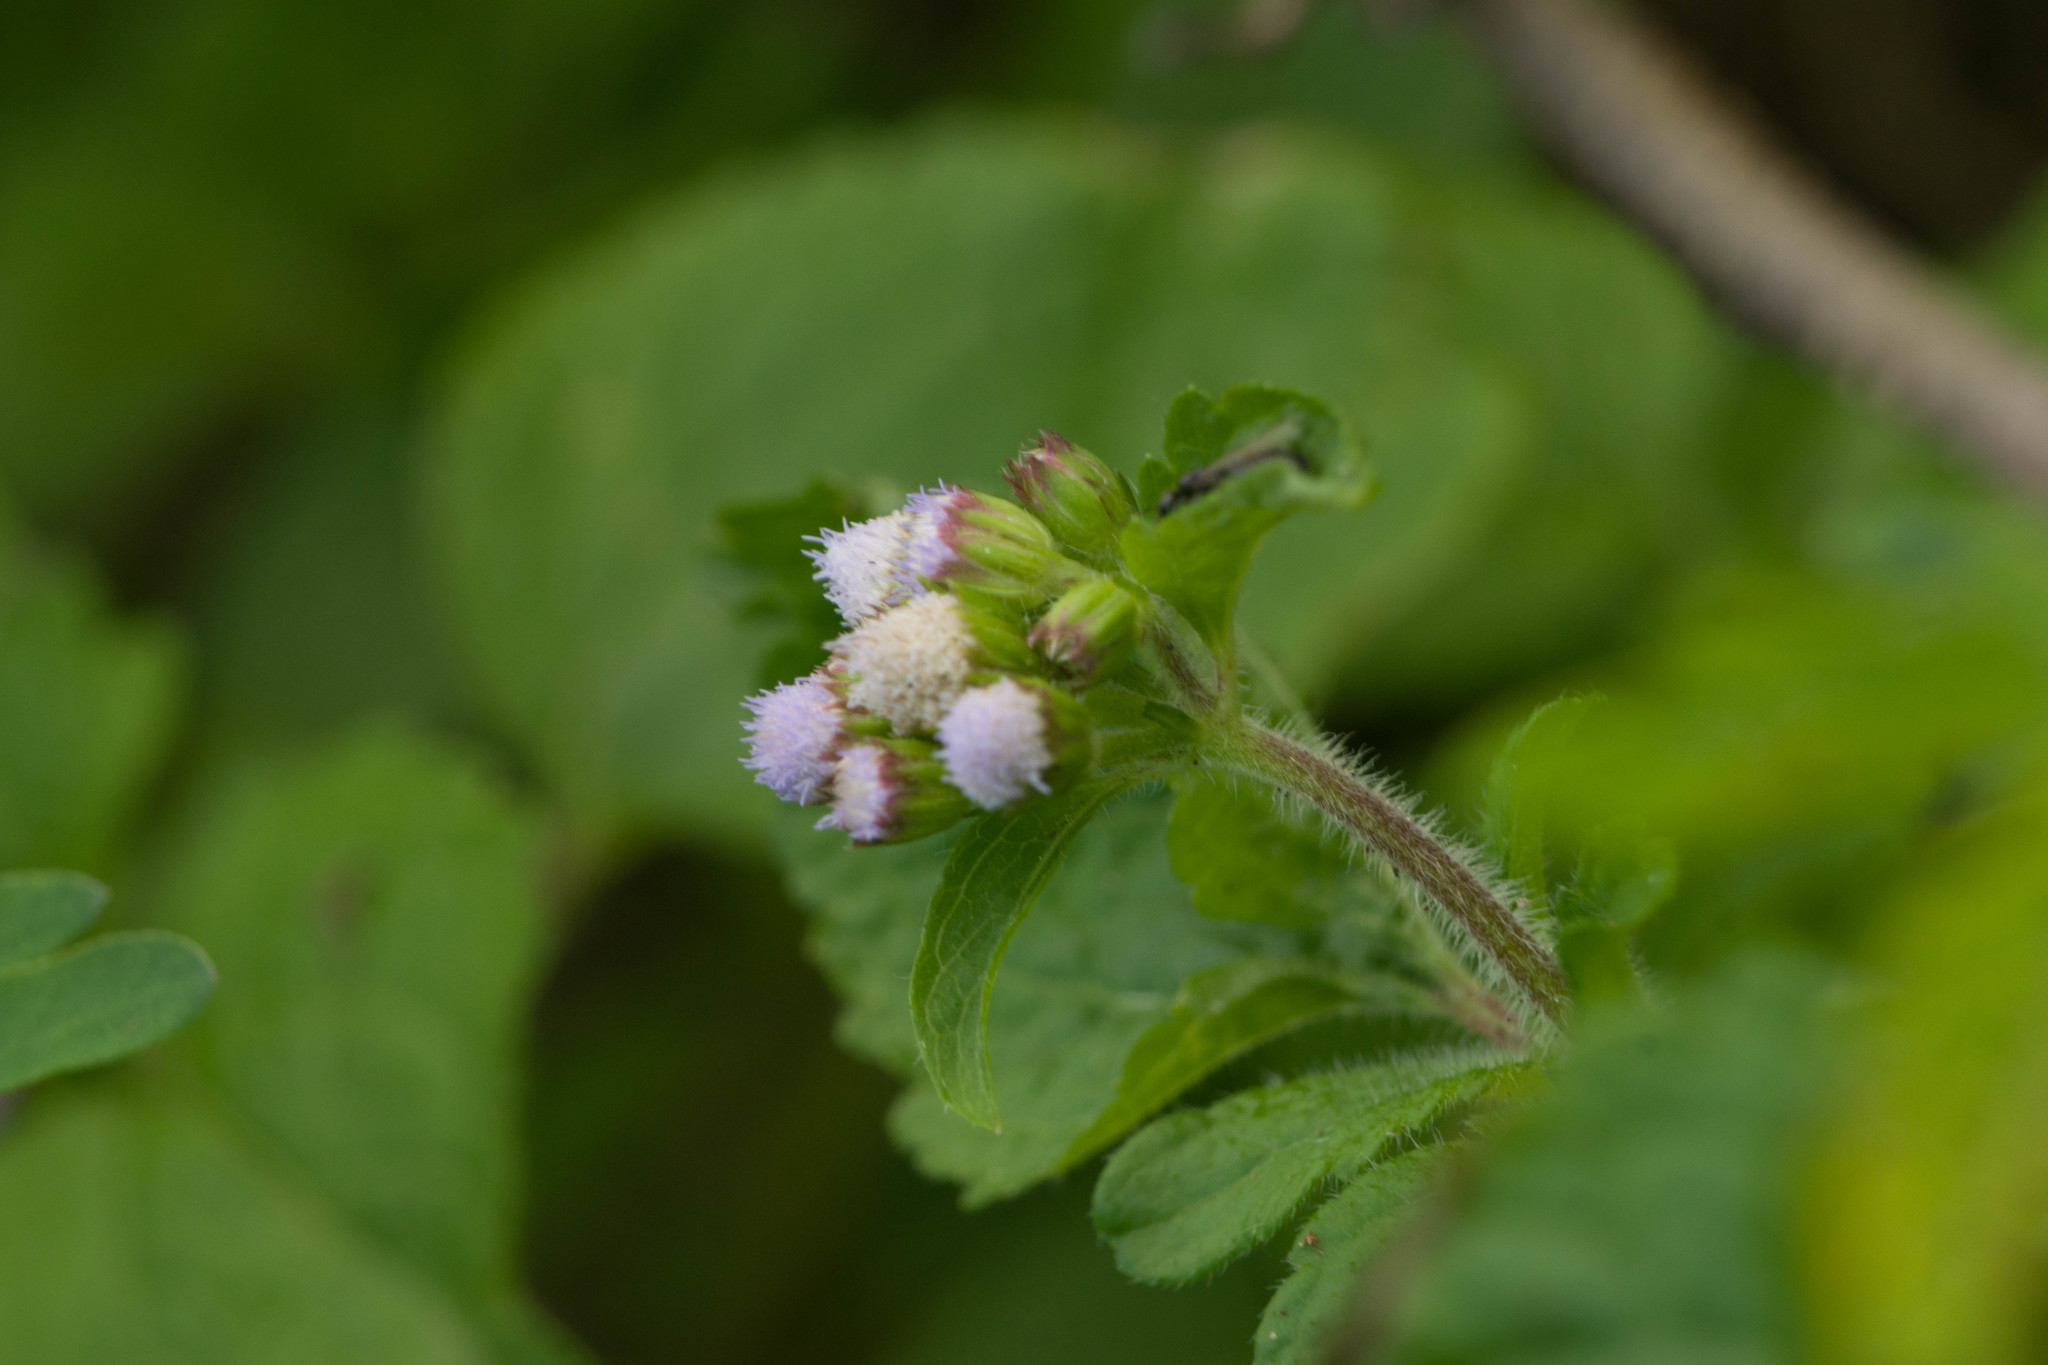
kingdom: Plantae
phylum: Tracheophyta
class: Magnoliopsida
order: Asterales
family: Asteraceae
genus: Ageratum
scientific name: Ageratum conyzoides
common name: Tropical whiteweed
